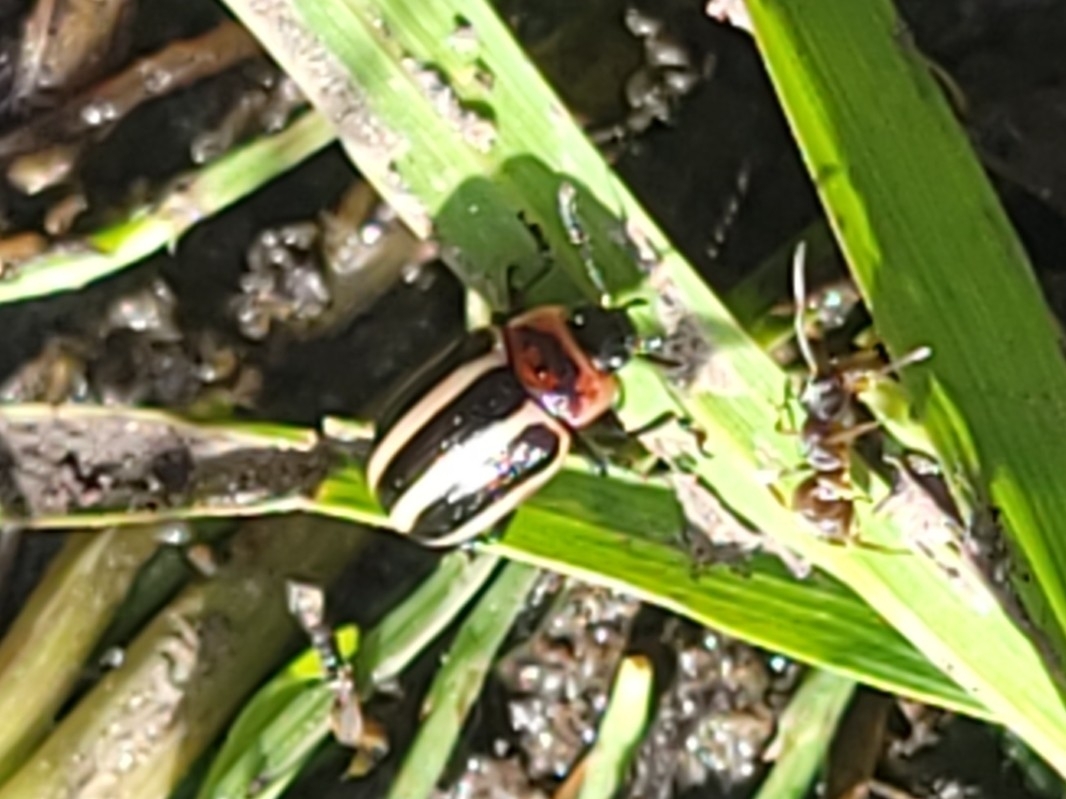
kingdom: Animalia
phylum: Arthropoda
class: Insecta
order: Coleoptera
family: Chrysomelidae
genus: Calligrapha
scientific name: Calligrapha californica
